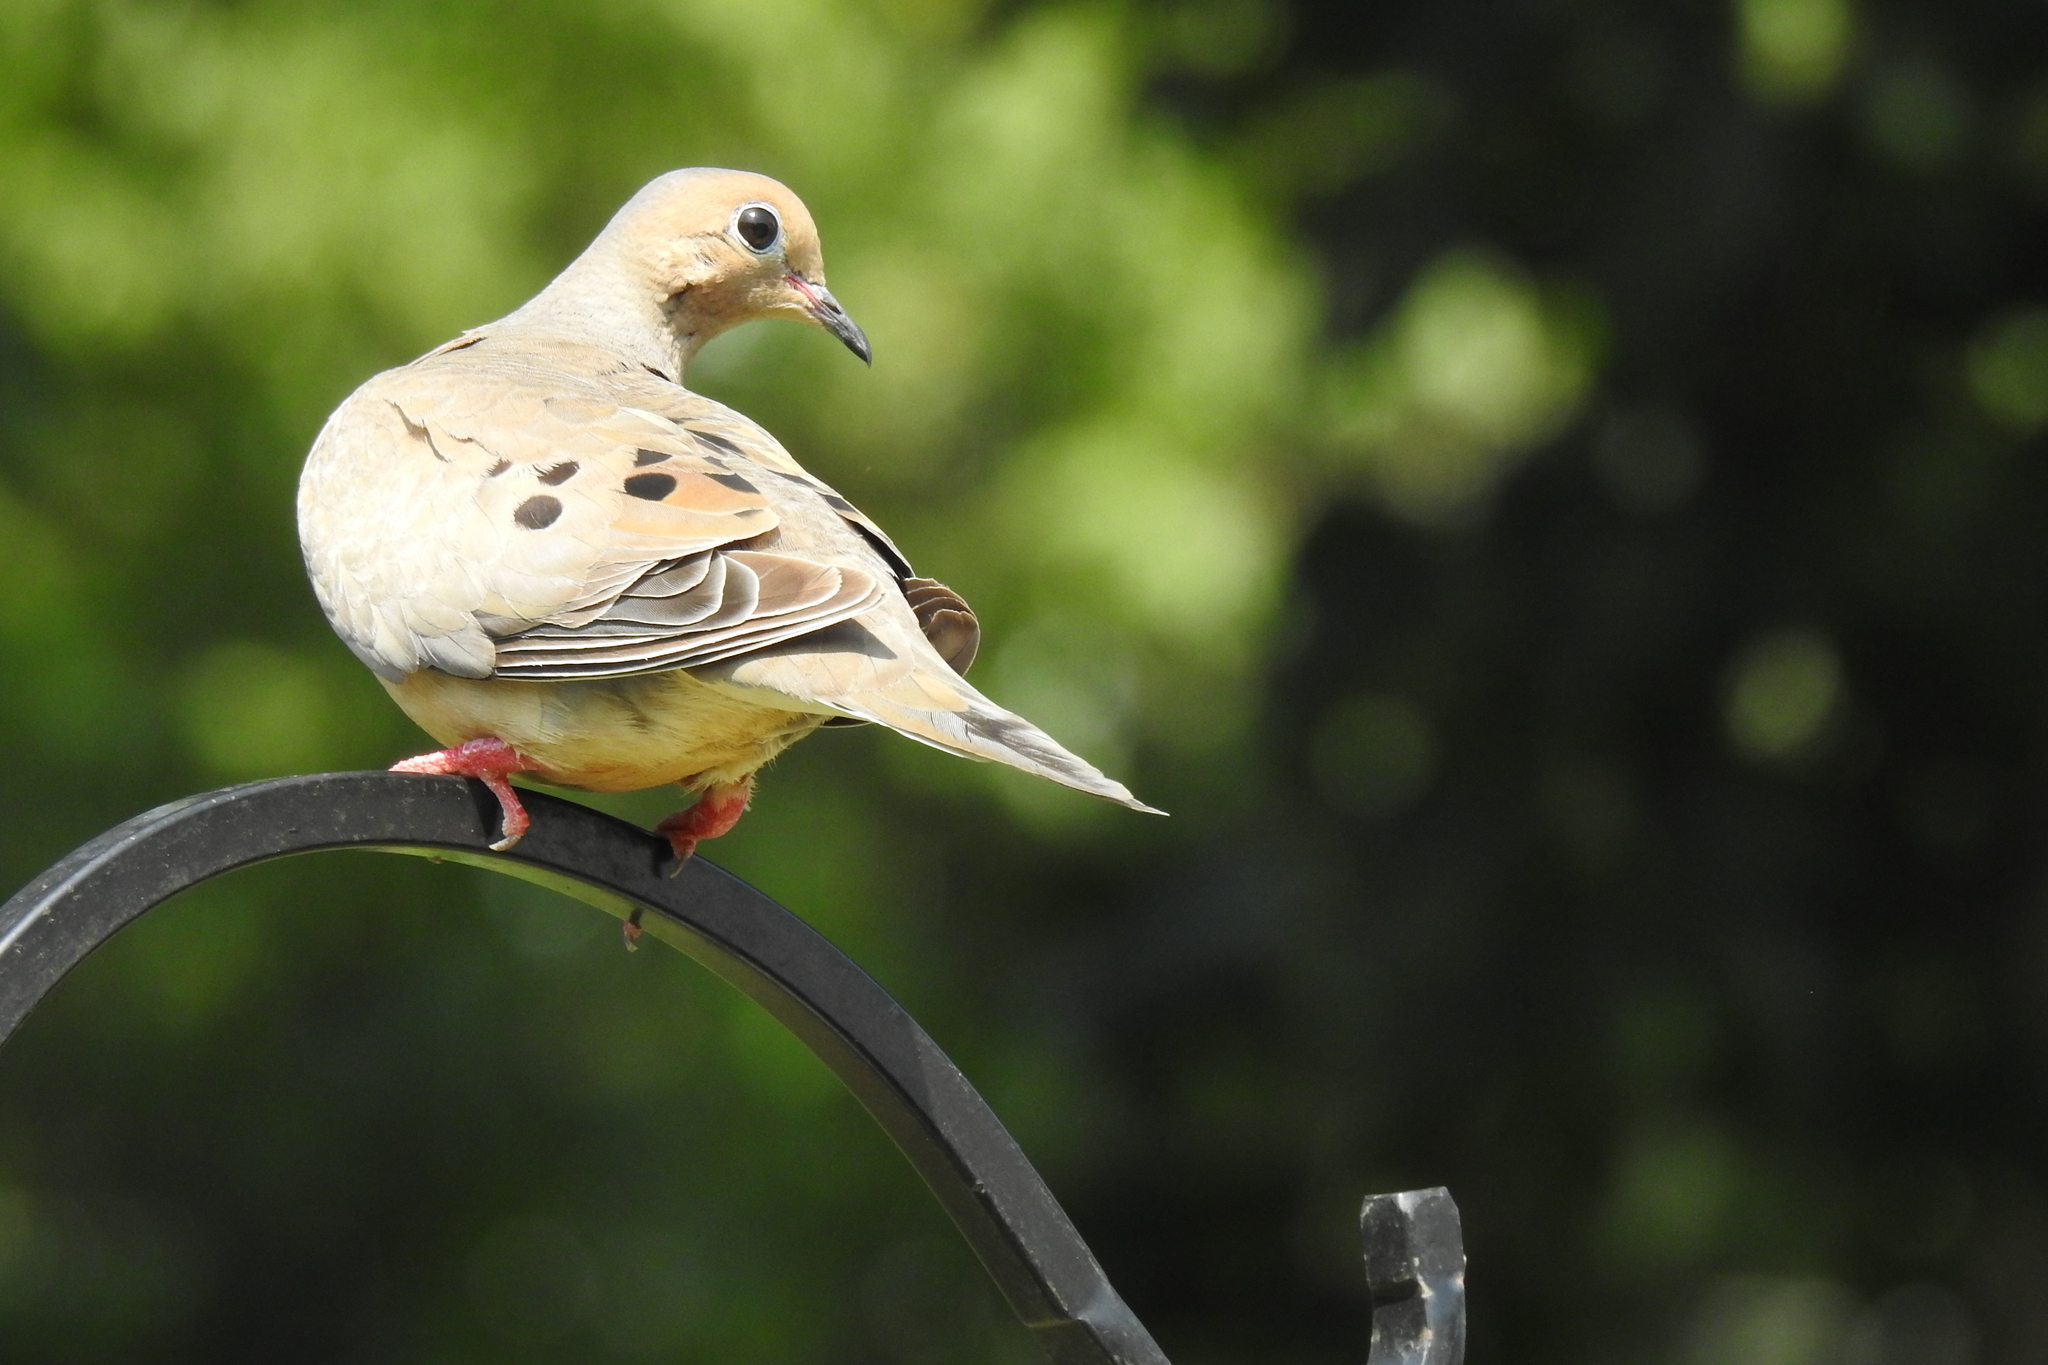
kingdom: Animalia
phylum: Chordata
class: Aves
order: Columbiformes
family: Columbidae
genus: Zenaida
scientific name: Zenaida macroura
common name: Mourning dove
